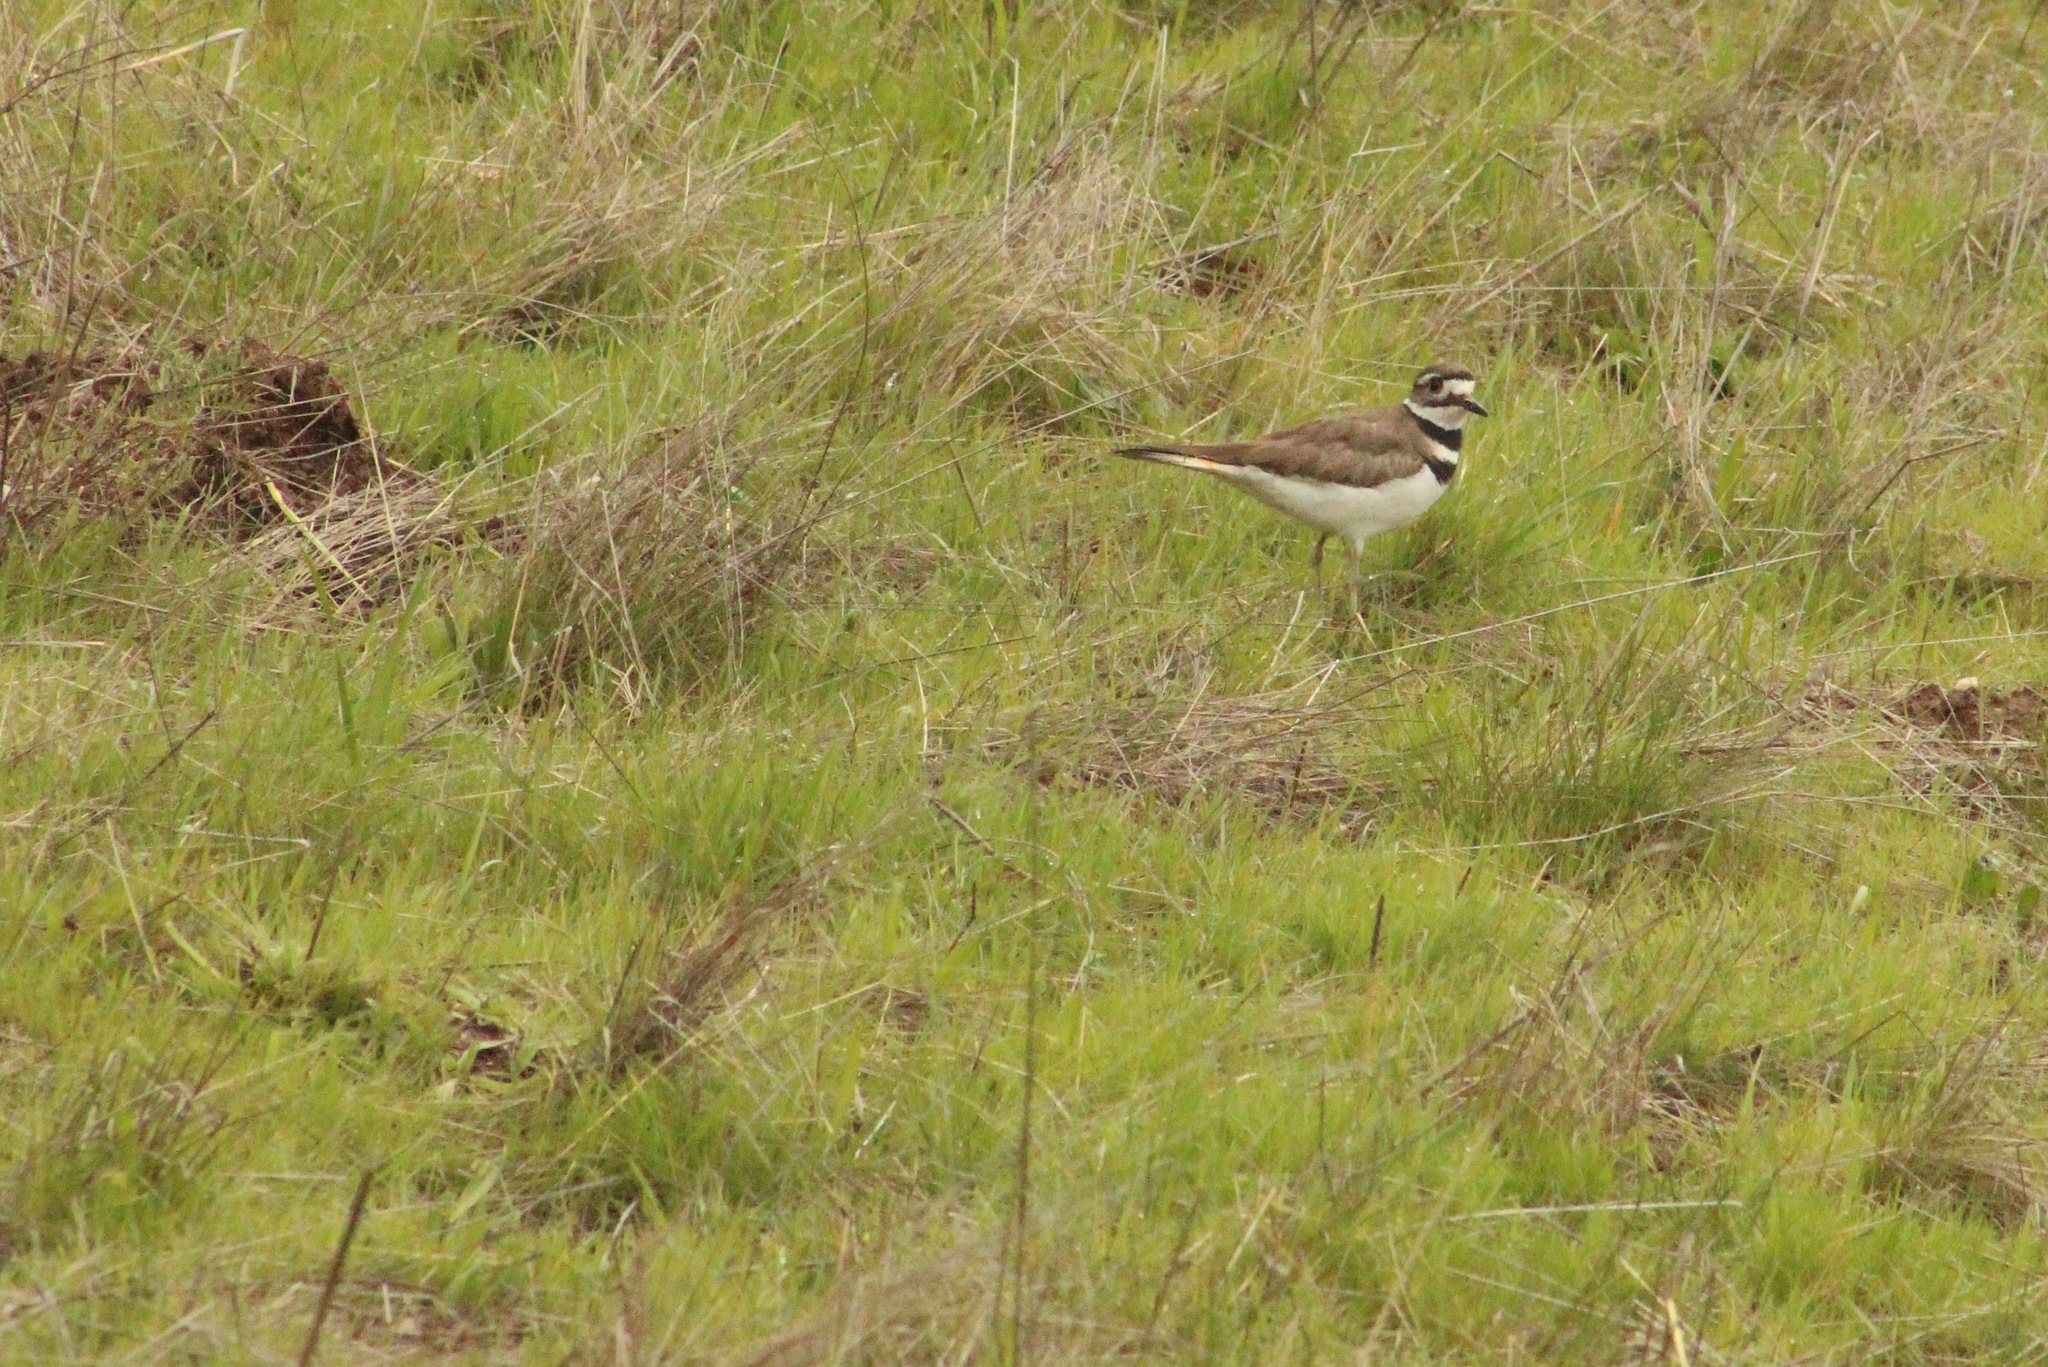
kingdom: Animalia
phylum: Chordata
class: Aves
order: Charadriiformes
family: Charadriidae
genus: Charadrius
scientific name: Charadrius vociferus
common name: Killdeer
